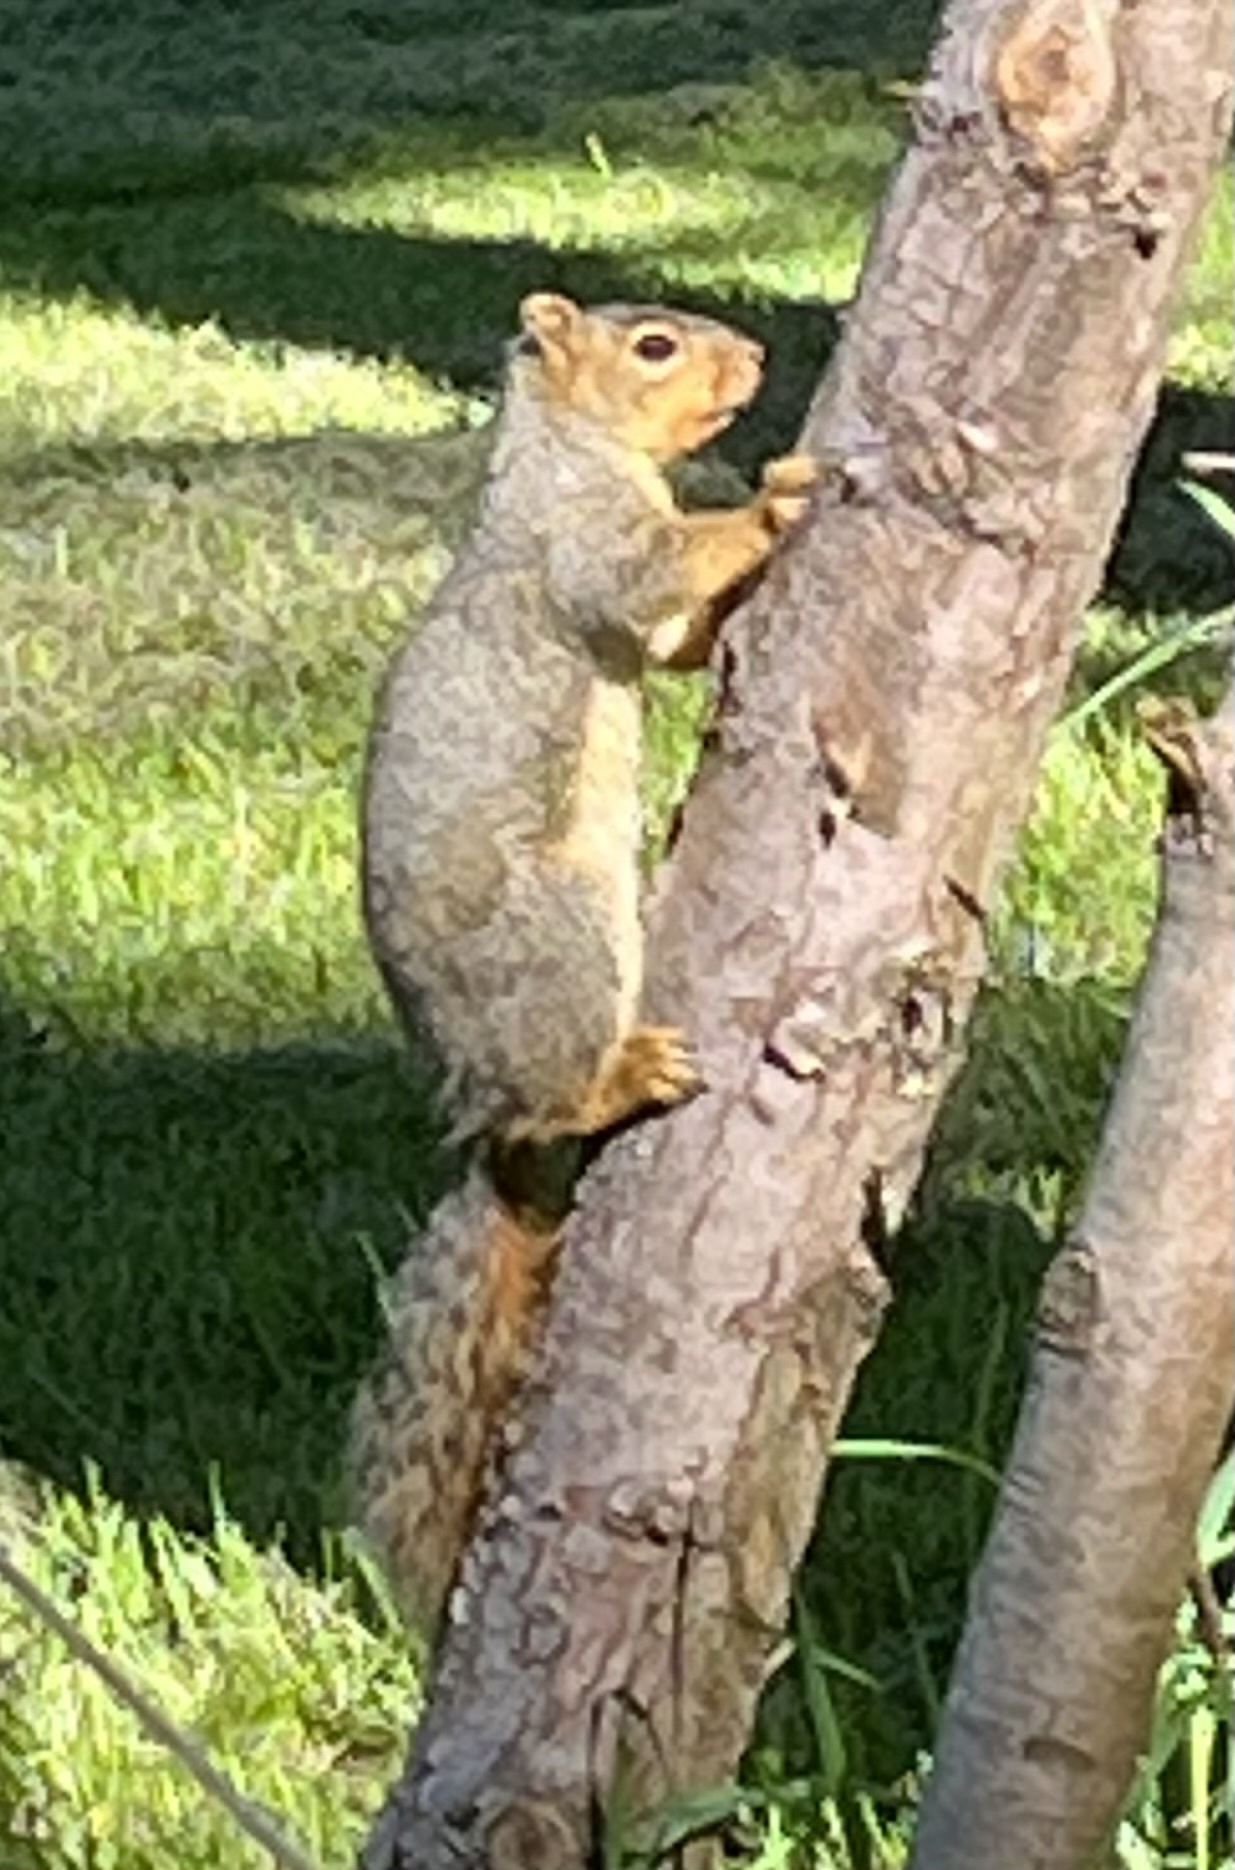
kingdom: Animalia
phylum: Chordata
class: Mammalia
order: Rodentia
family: Sciuridae
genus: Sciurus
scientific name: Sciurus niger
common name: Fox squirrel
